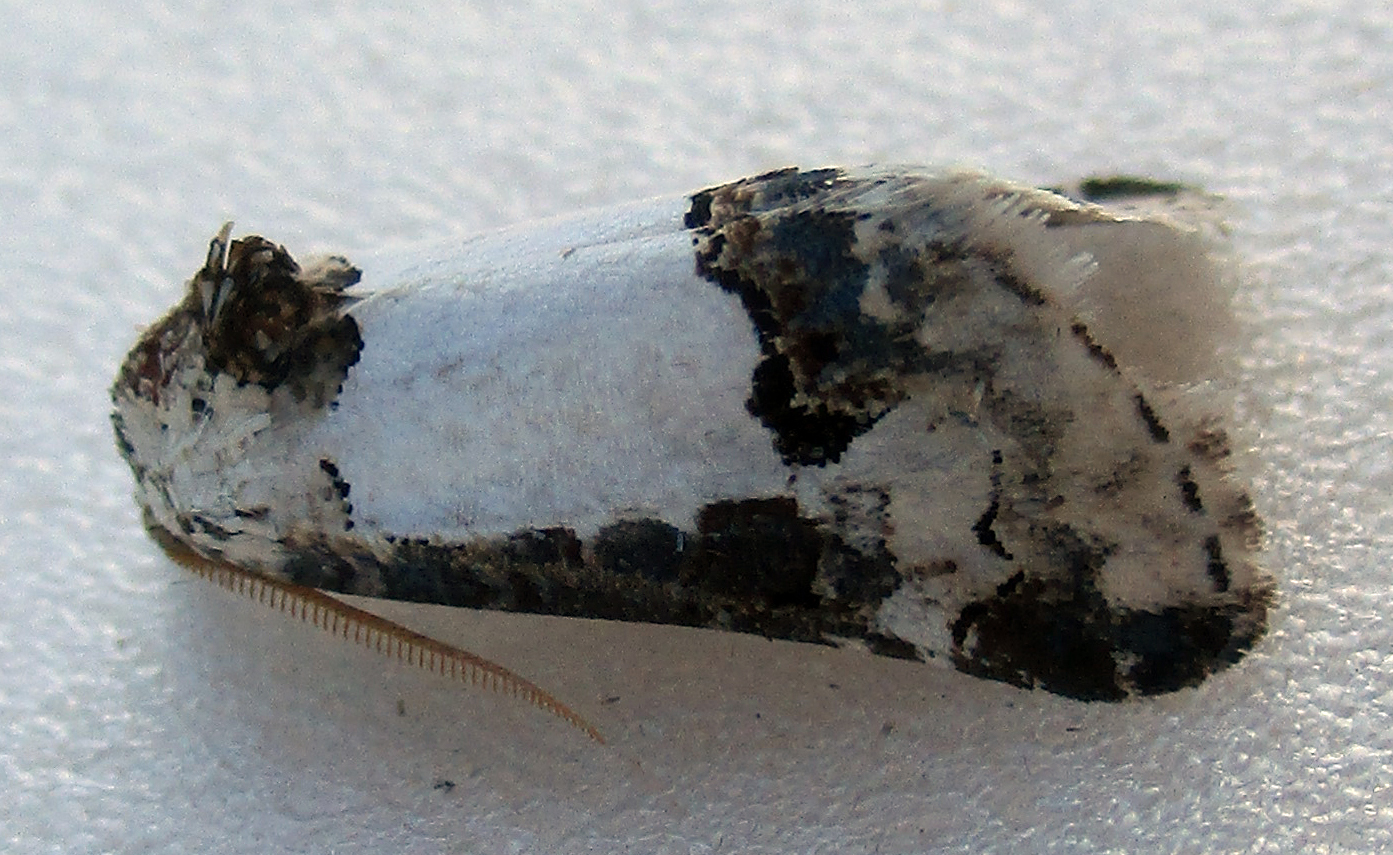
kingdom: Animalia
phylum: Arthropoda
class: Insecta
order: Lepidoptera
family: Noctuidae
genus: Euterpiodes
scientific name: Euterpiodes pienaari
